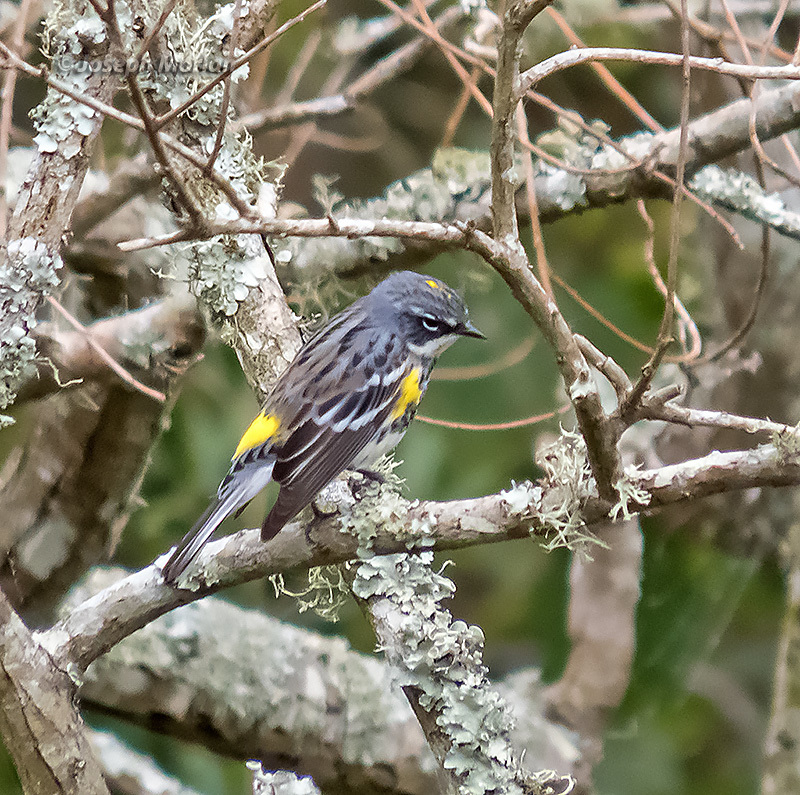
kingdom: Animalia
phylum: Chordata
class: Aves
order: Passeriformes
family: Parulidae
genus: Setophaga
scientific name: Setophaga coronata
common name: Myrtle warbler
